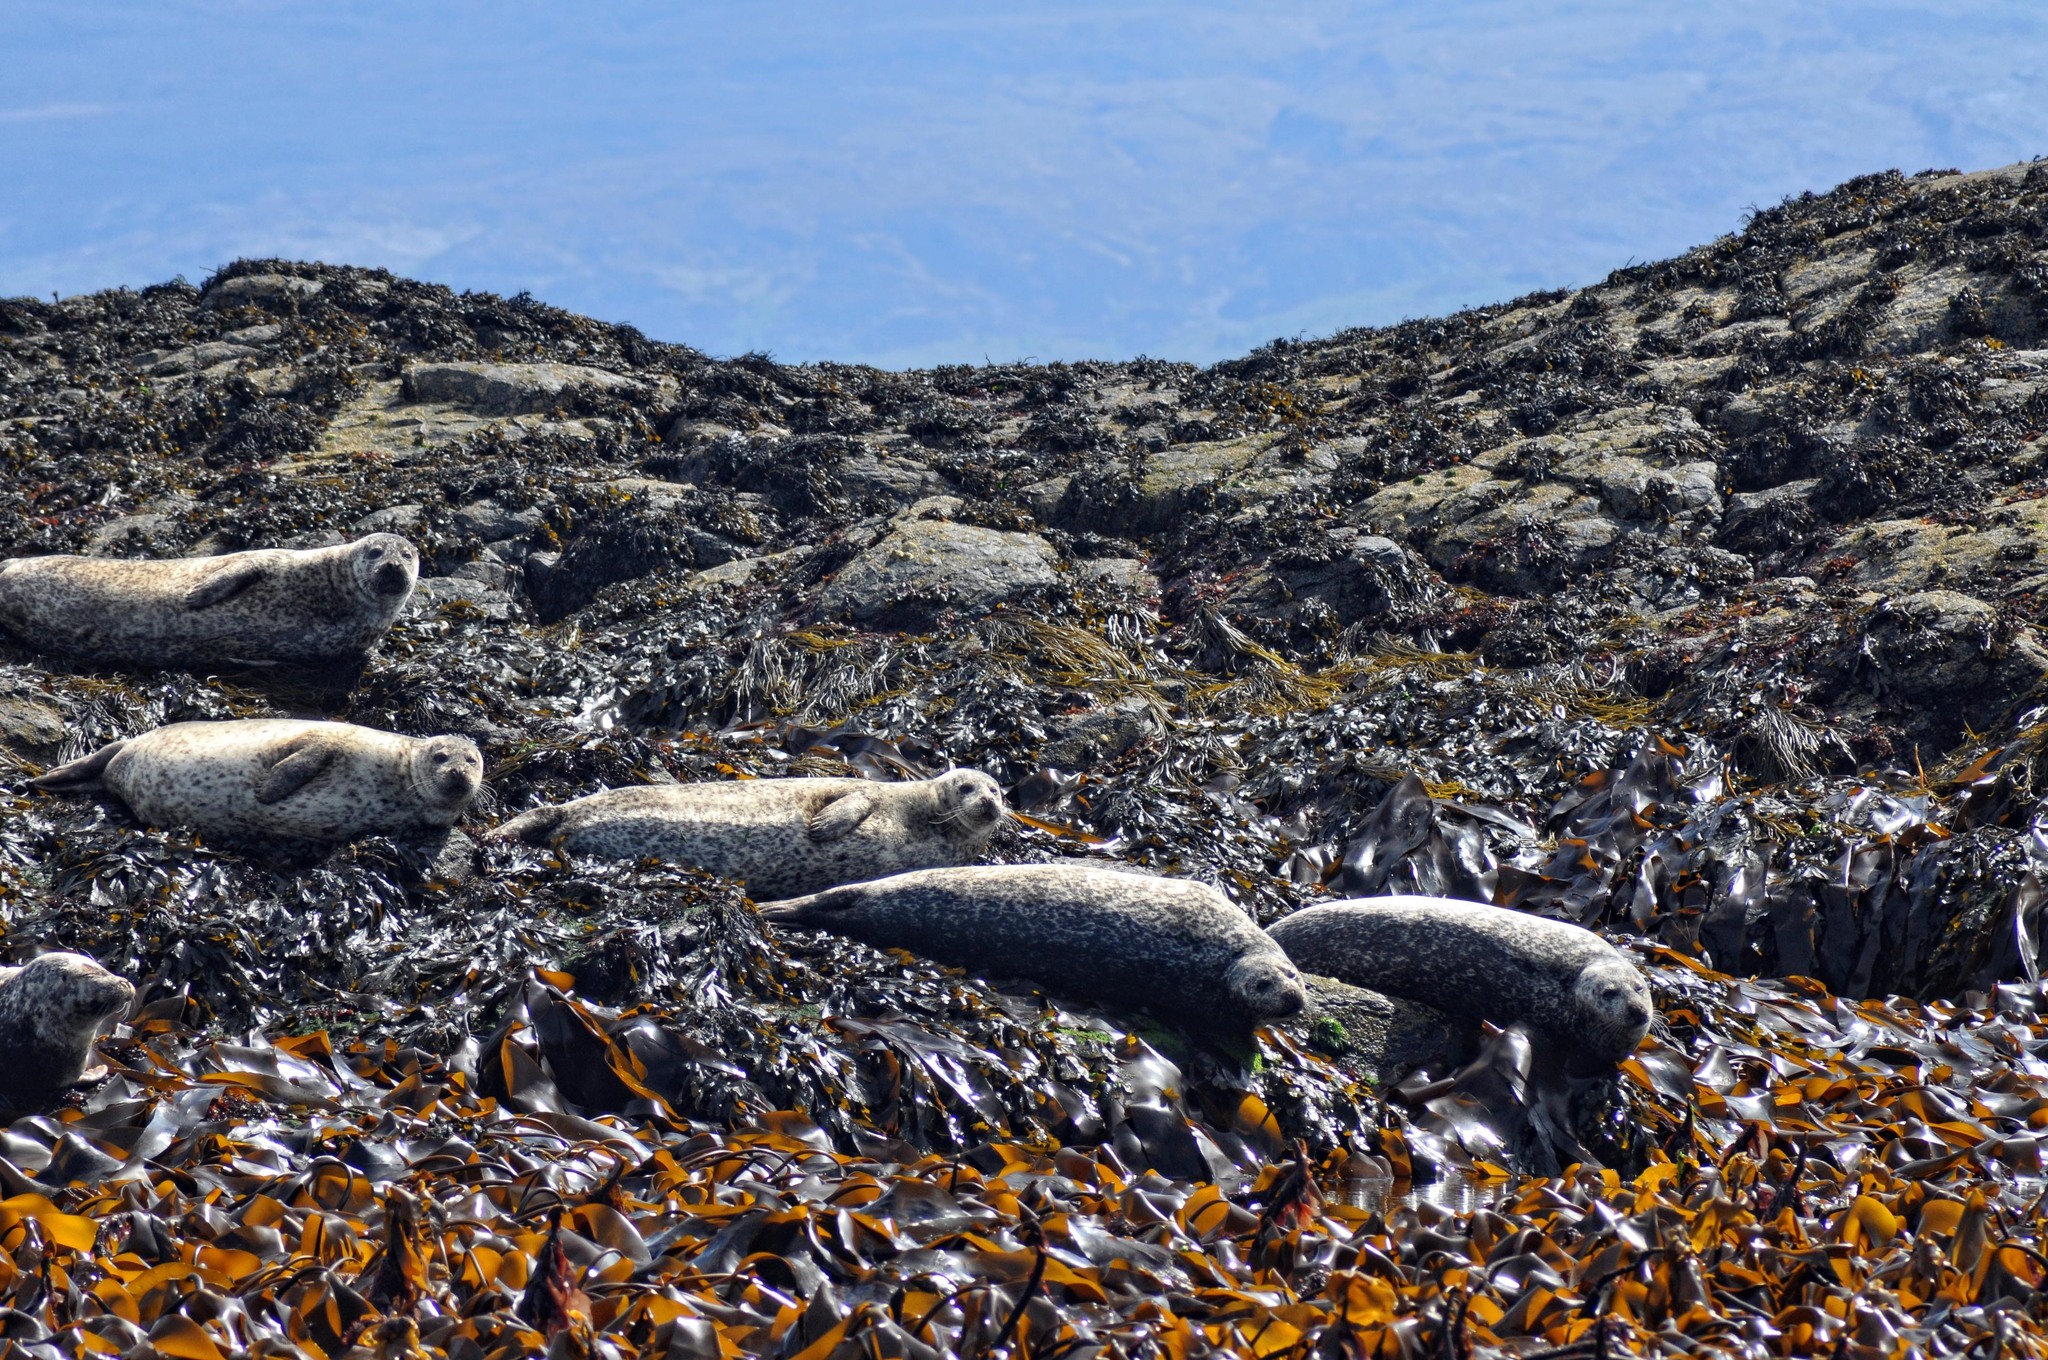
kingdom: Animalia
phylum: Chordata
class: Mammalia
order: Carnivora
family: Phocidae
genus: Phoca
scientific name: Phoca vitulina
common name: Harbor seal
